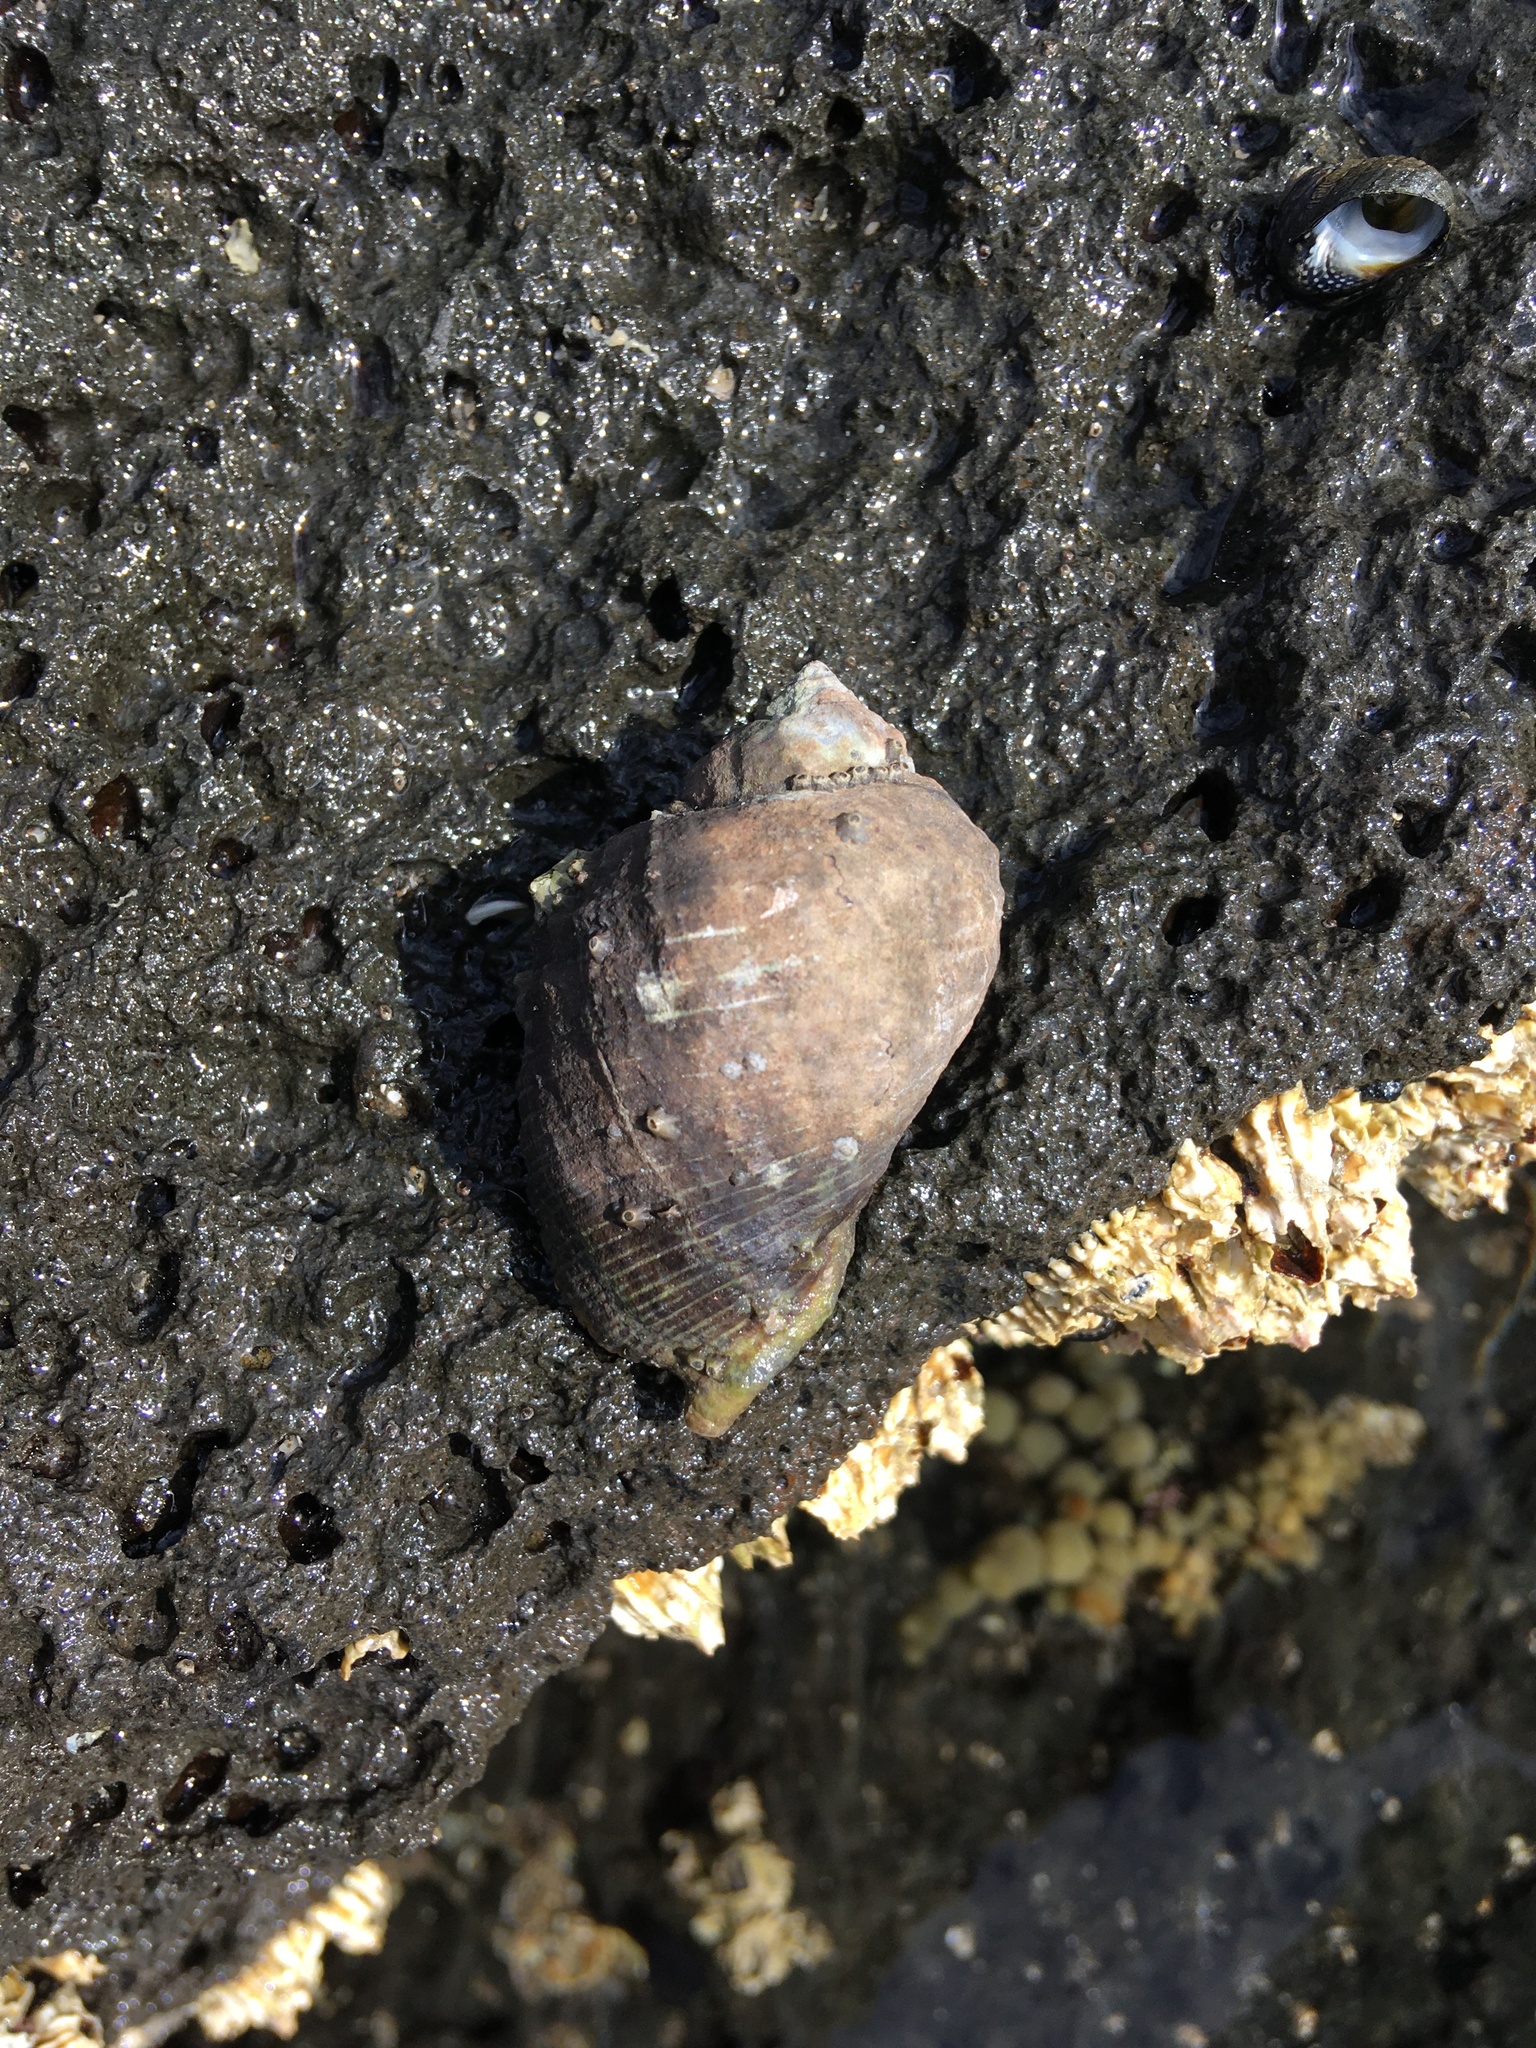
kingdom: Animalia
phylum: Mollusca
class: Gastropoda
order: Neogastropoda
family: Muricidae
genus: Haustrum
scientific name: Haustrum haustorium
